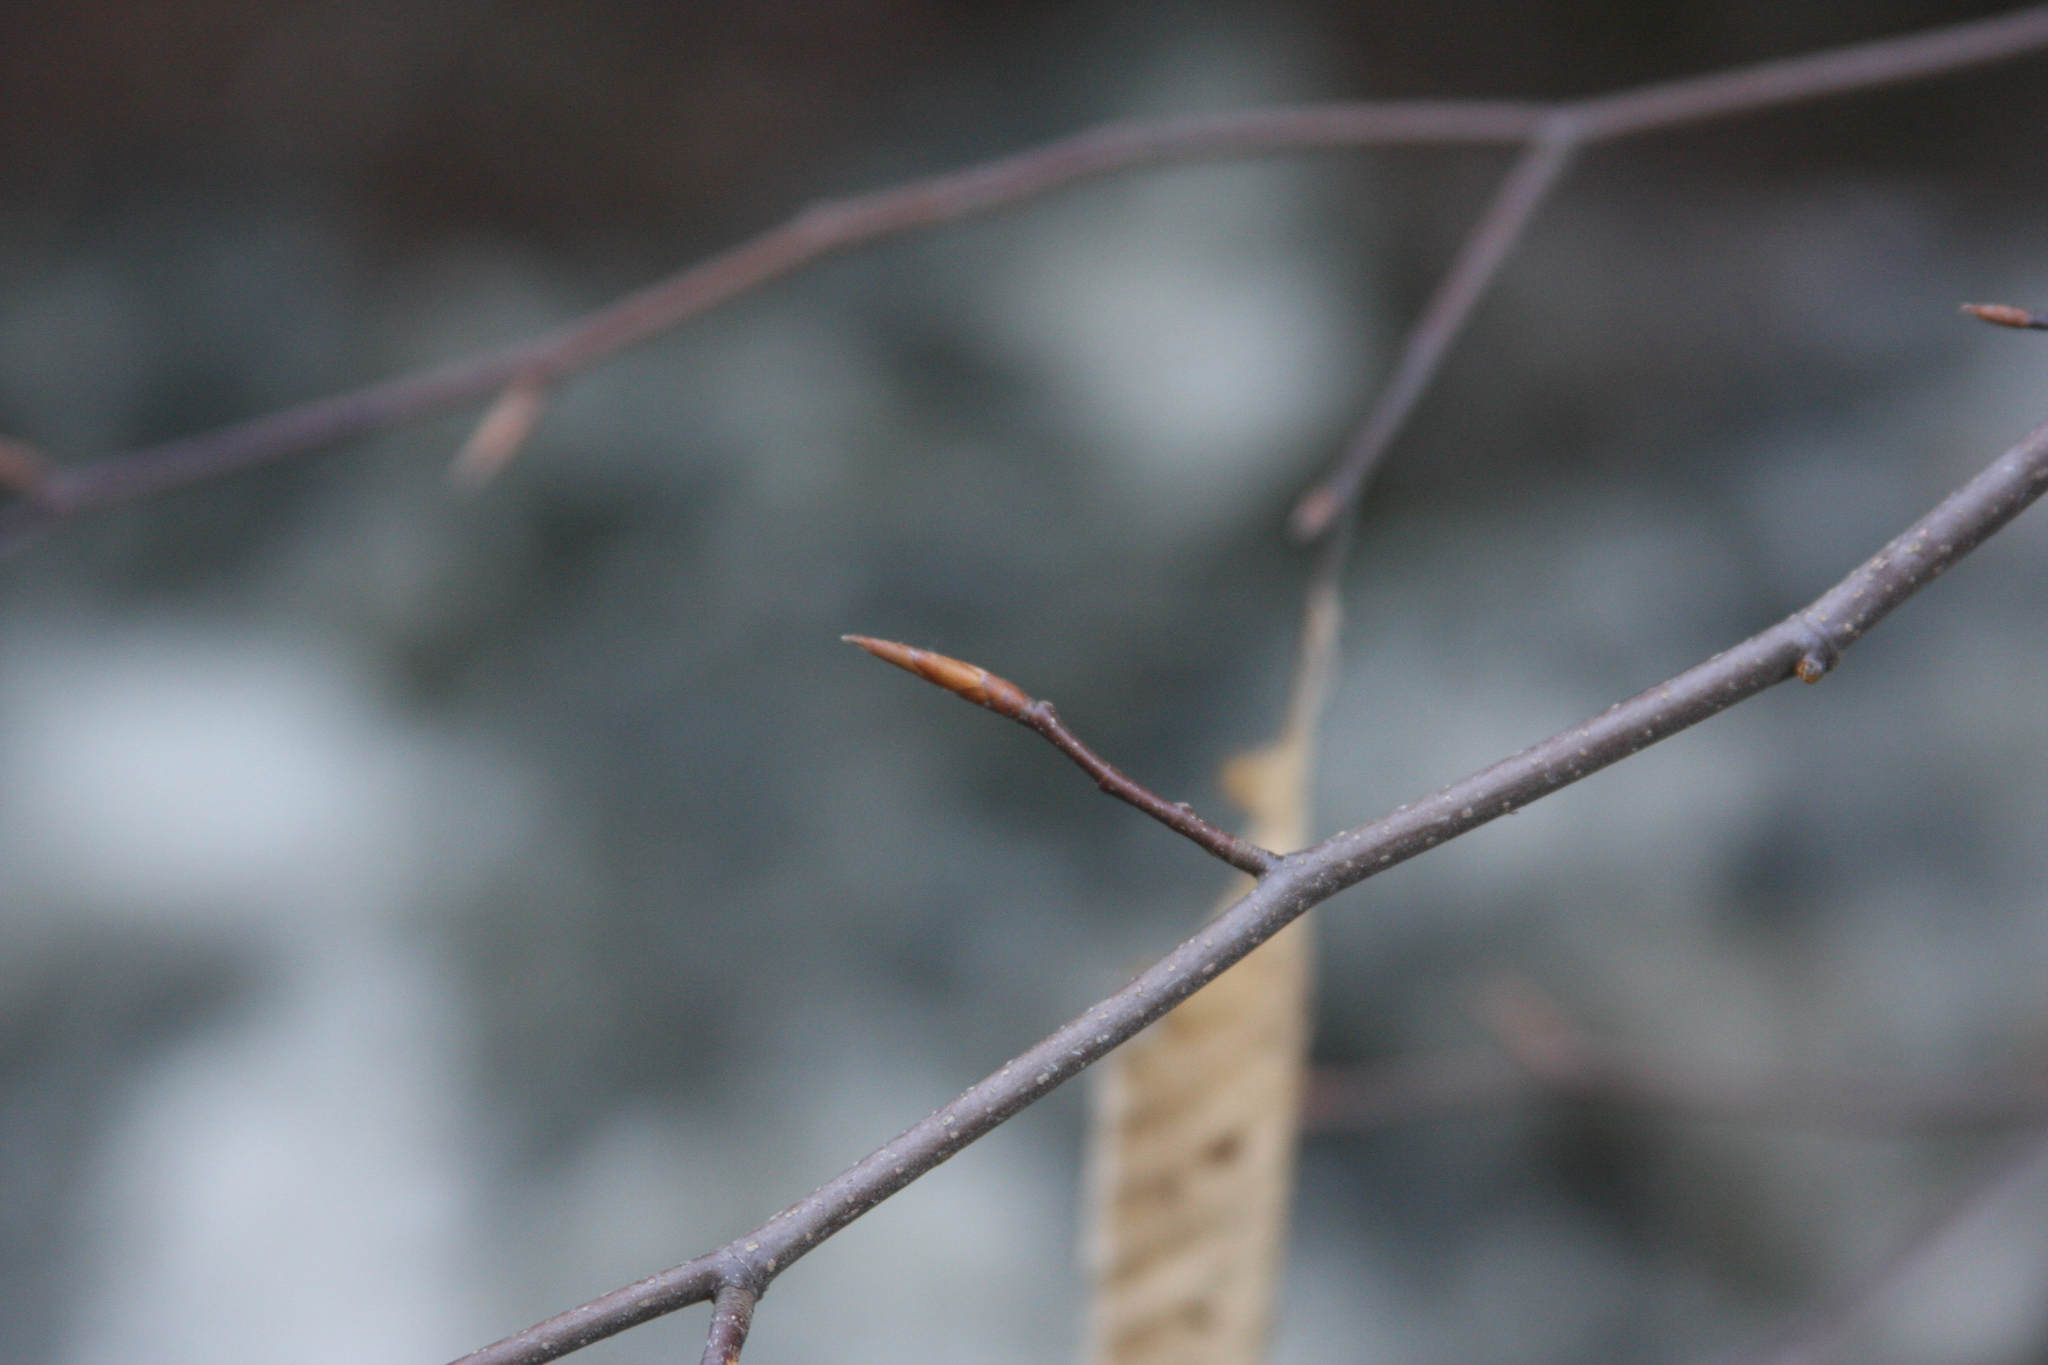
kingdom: Plantae
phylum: Tracheophyta
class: Magnoliopsida
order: Fagales
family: Fagaceae
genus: Fagus
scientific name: Fagus grandifolia
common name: American beech
